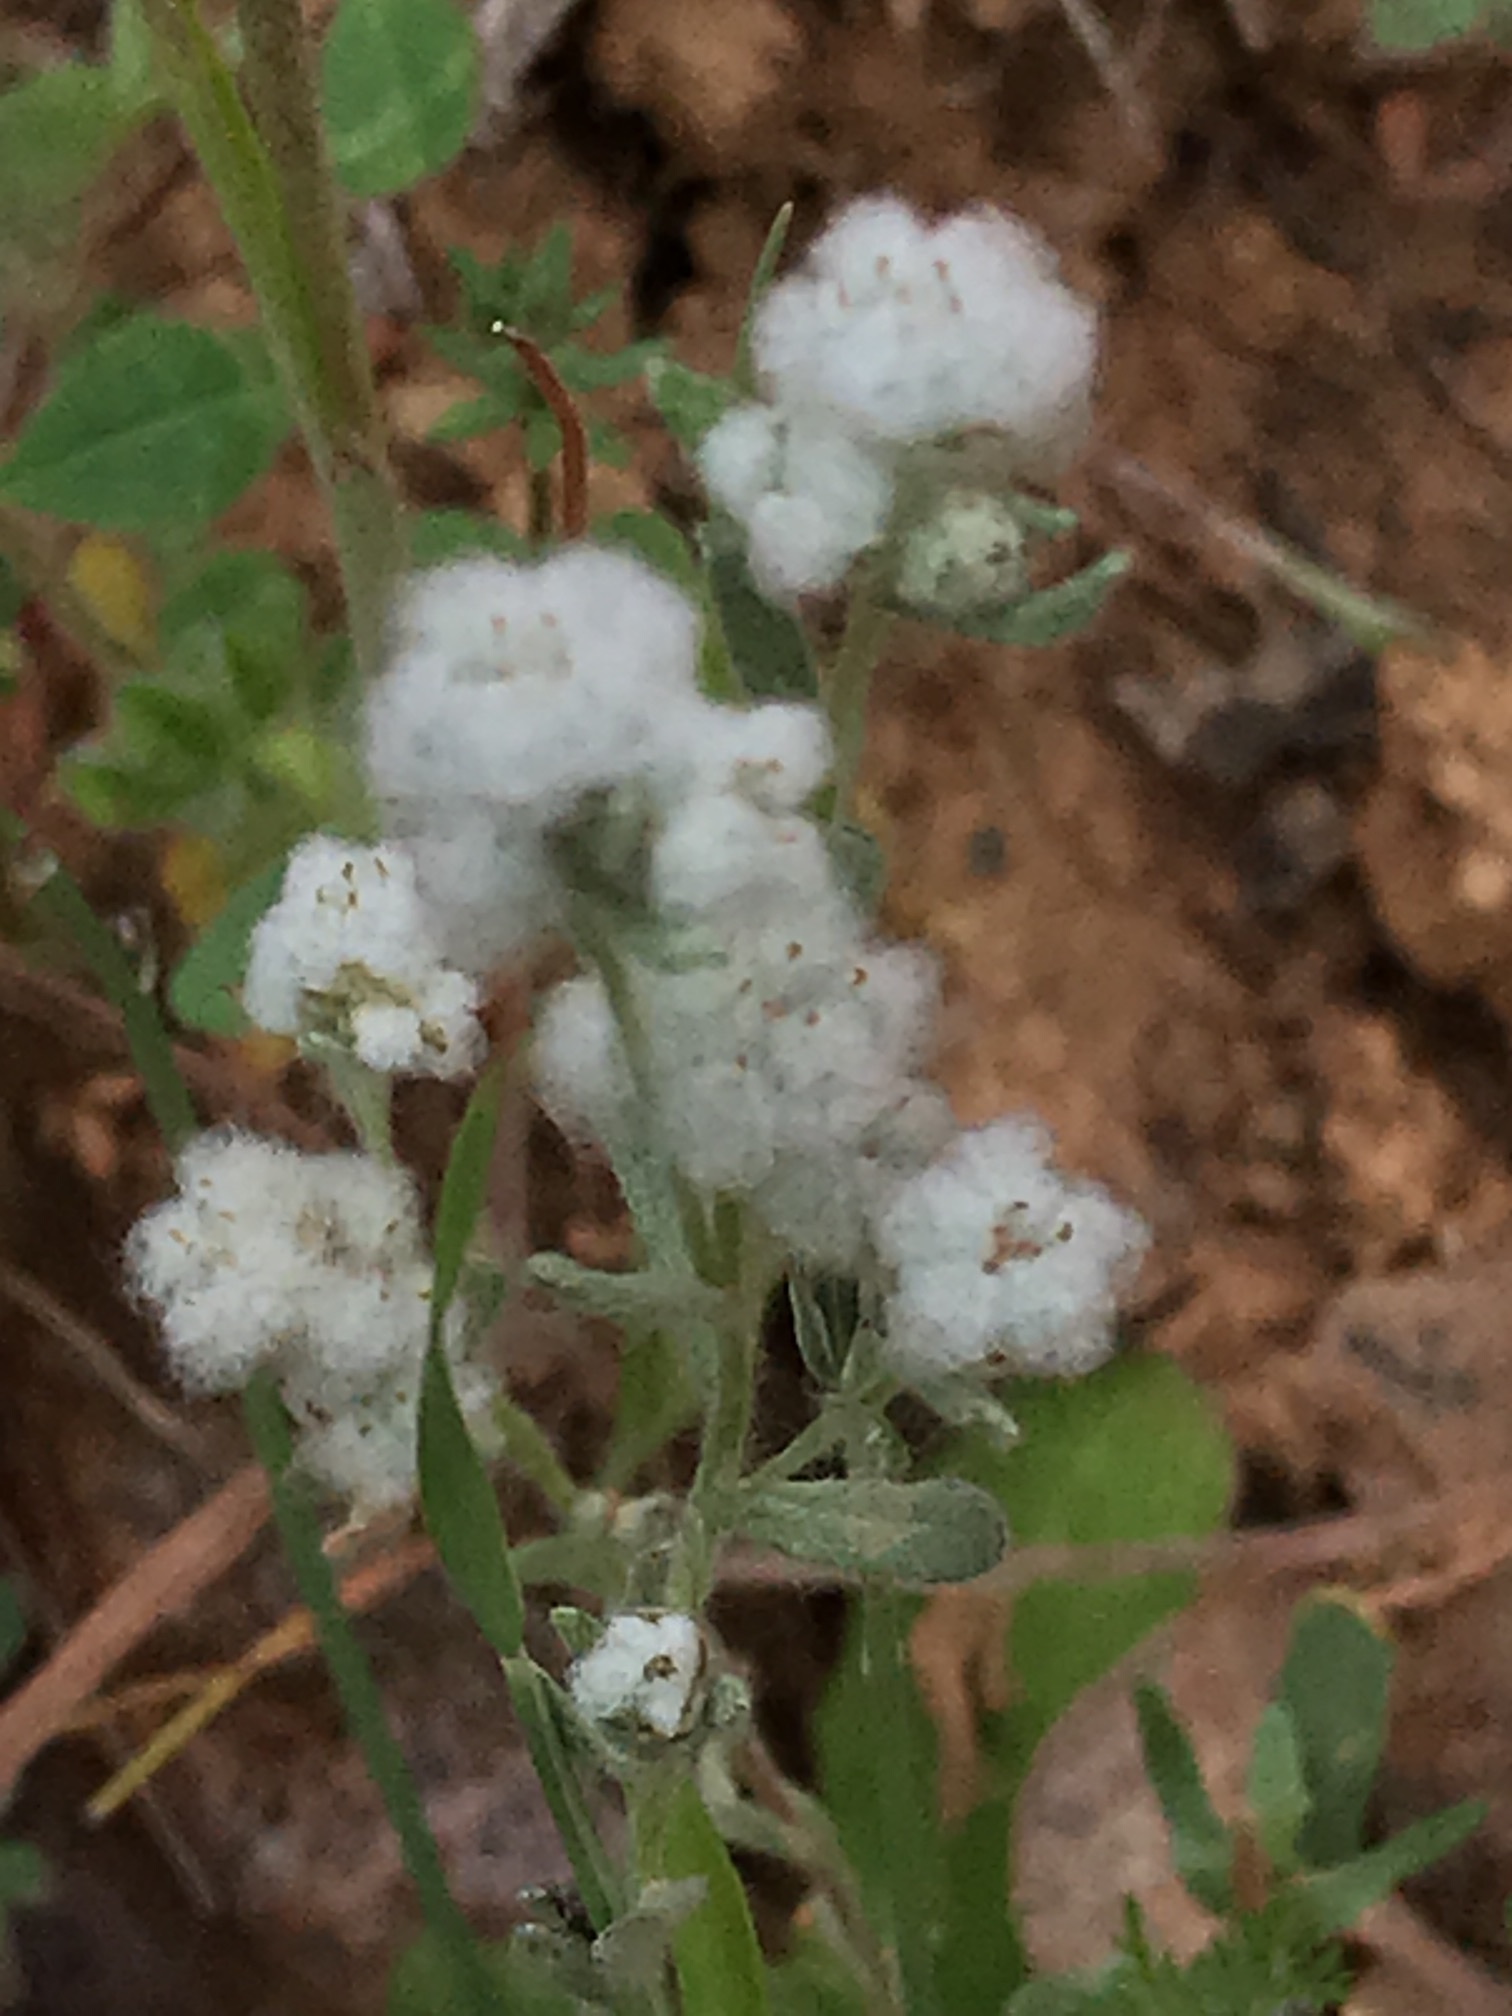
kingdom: Plantae
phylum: Tracheophyta
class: Magnoliopsida
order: Asterales
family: Asteraceae
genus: Bombycilaena
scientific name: Bombycilaena californica
